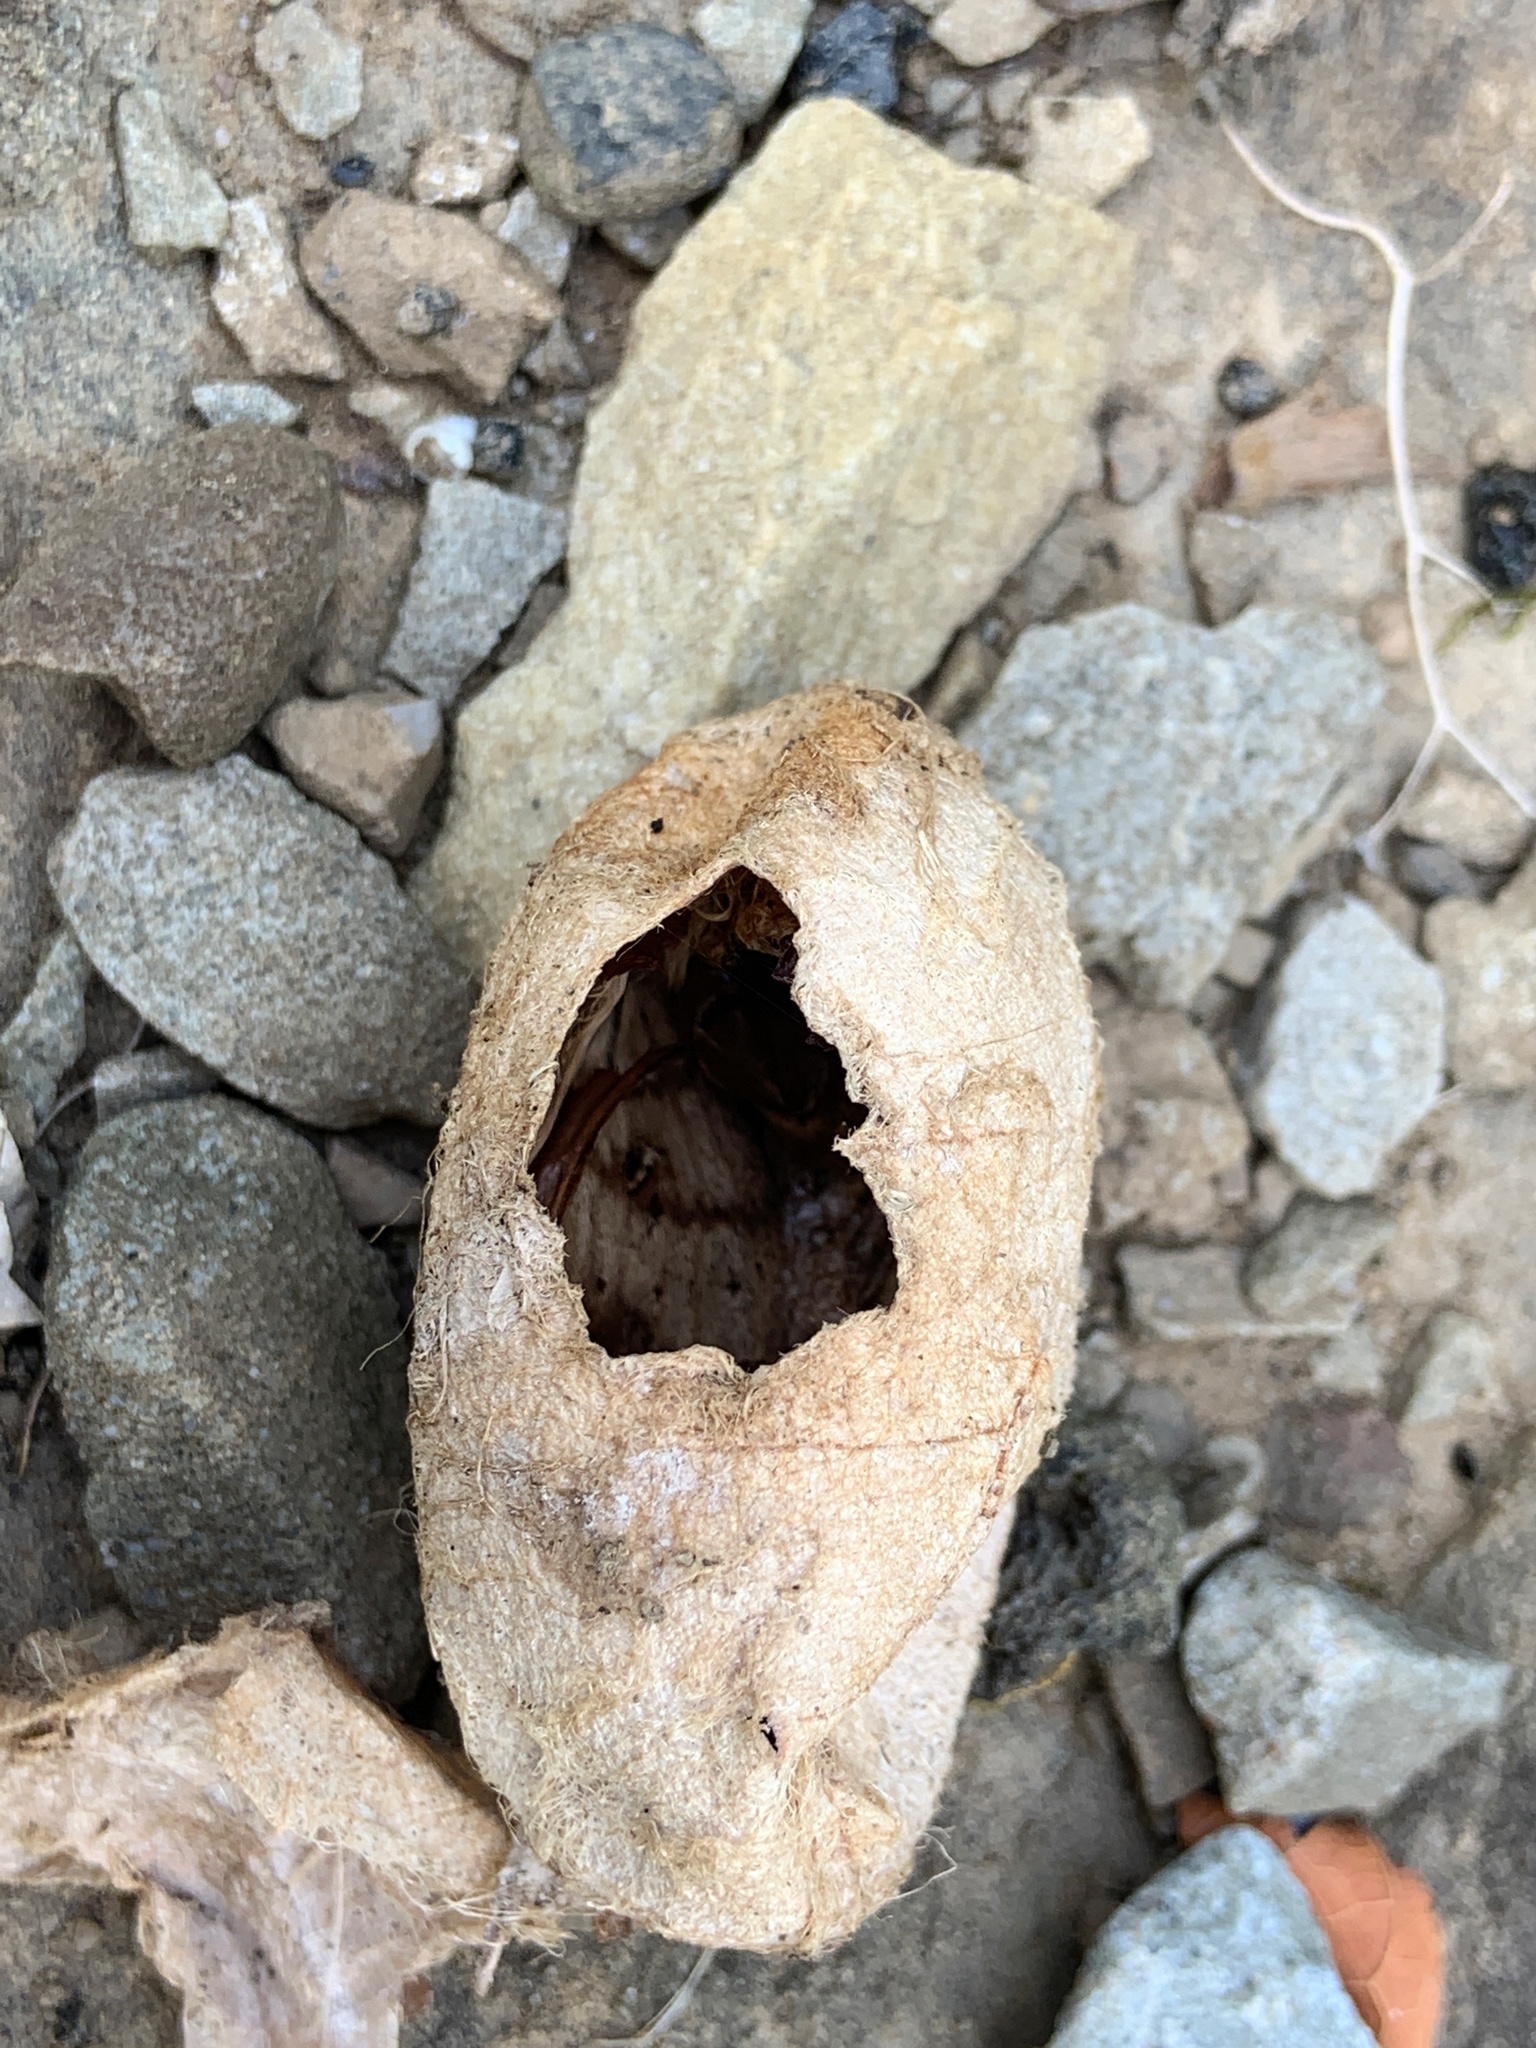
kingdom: Animalia
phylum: Arthropoda
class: Insecta
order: Lepidoptera
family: Saturniidae
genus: Antheraea
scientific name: Antheraea polyphemus
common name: Polyphemus moth
